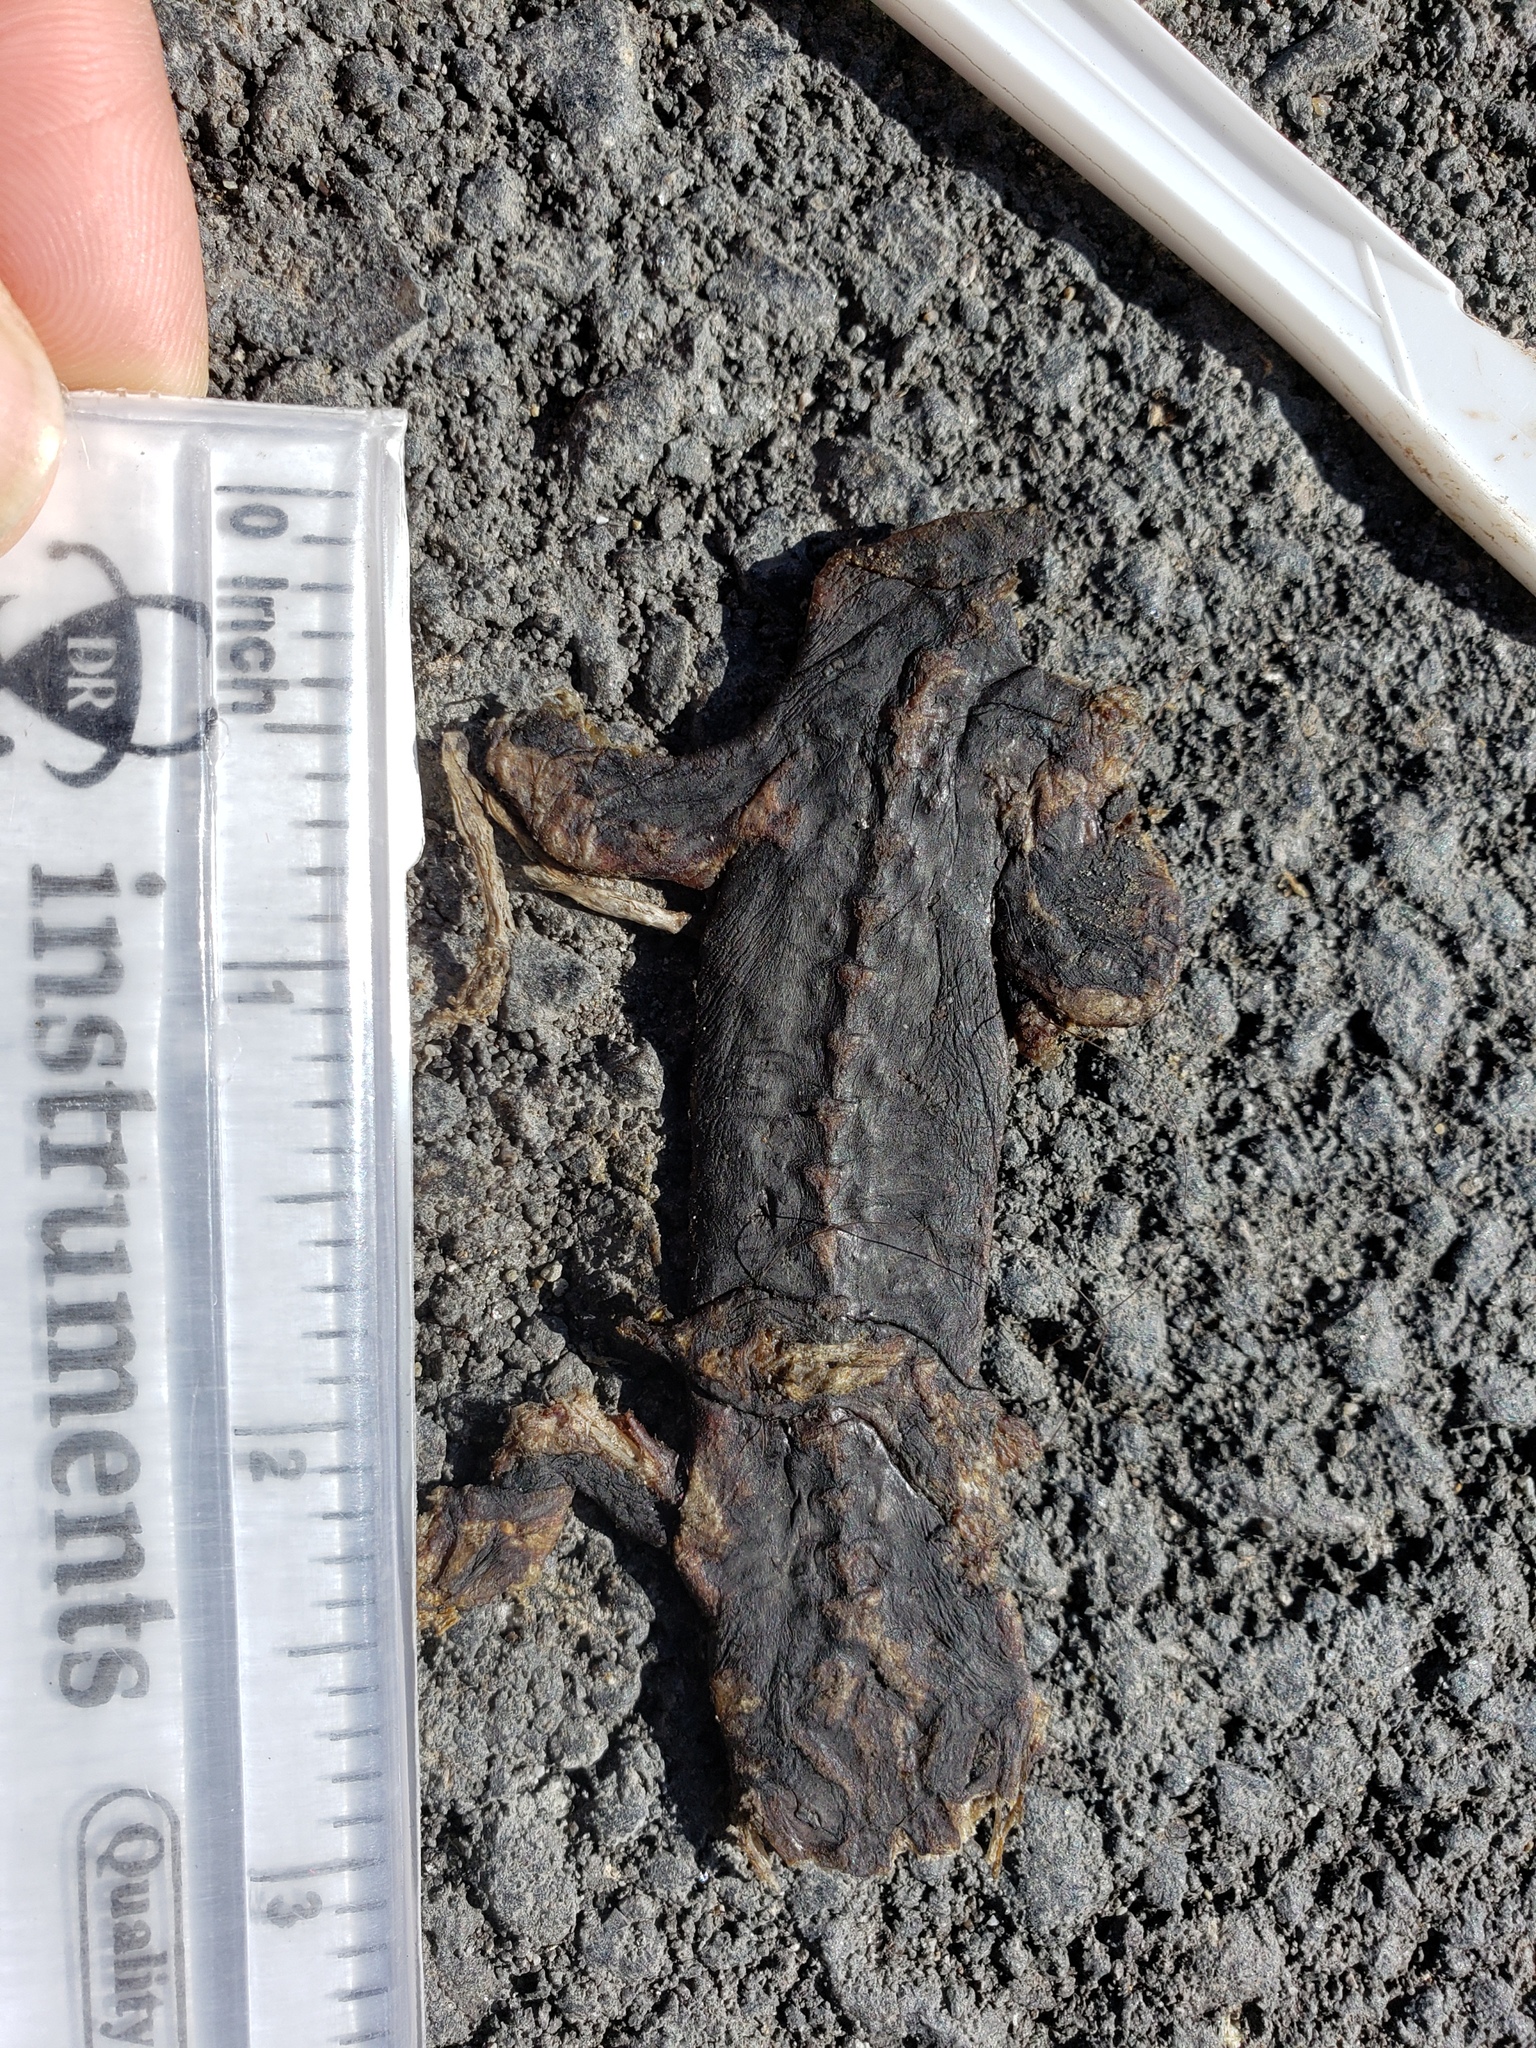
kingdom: Animalia
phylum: Chordata
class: Amphibia
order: Caudata
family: Salamandridae
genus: Taricha
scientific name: Taricha
